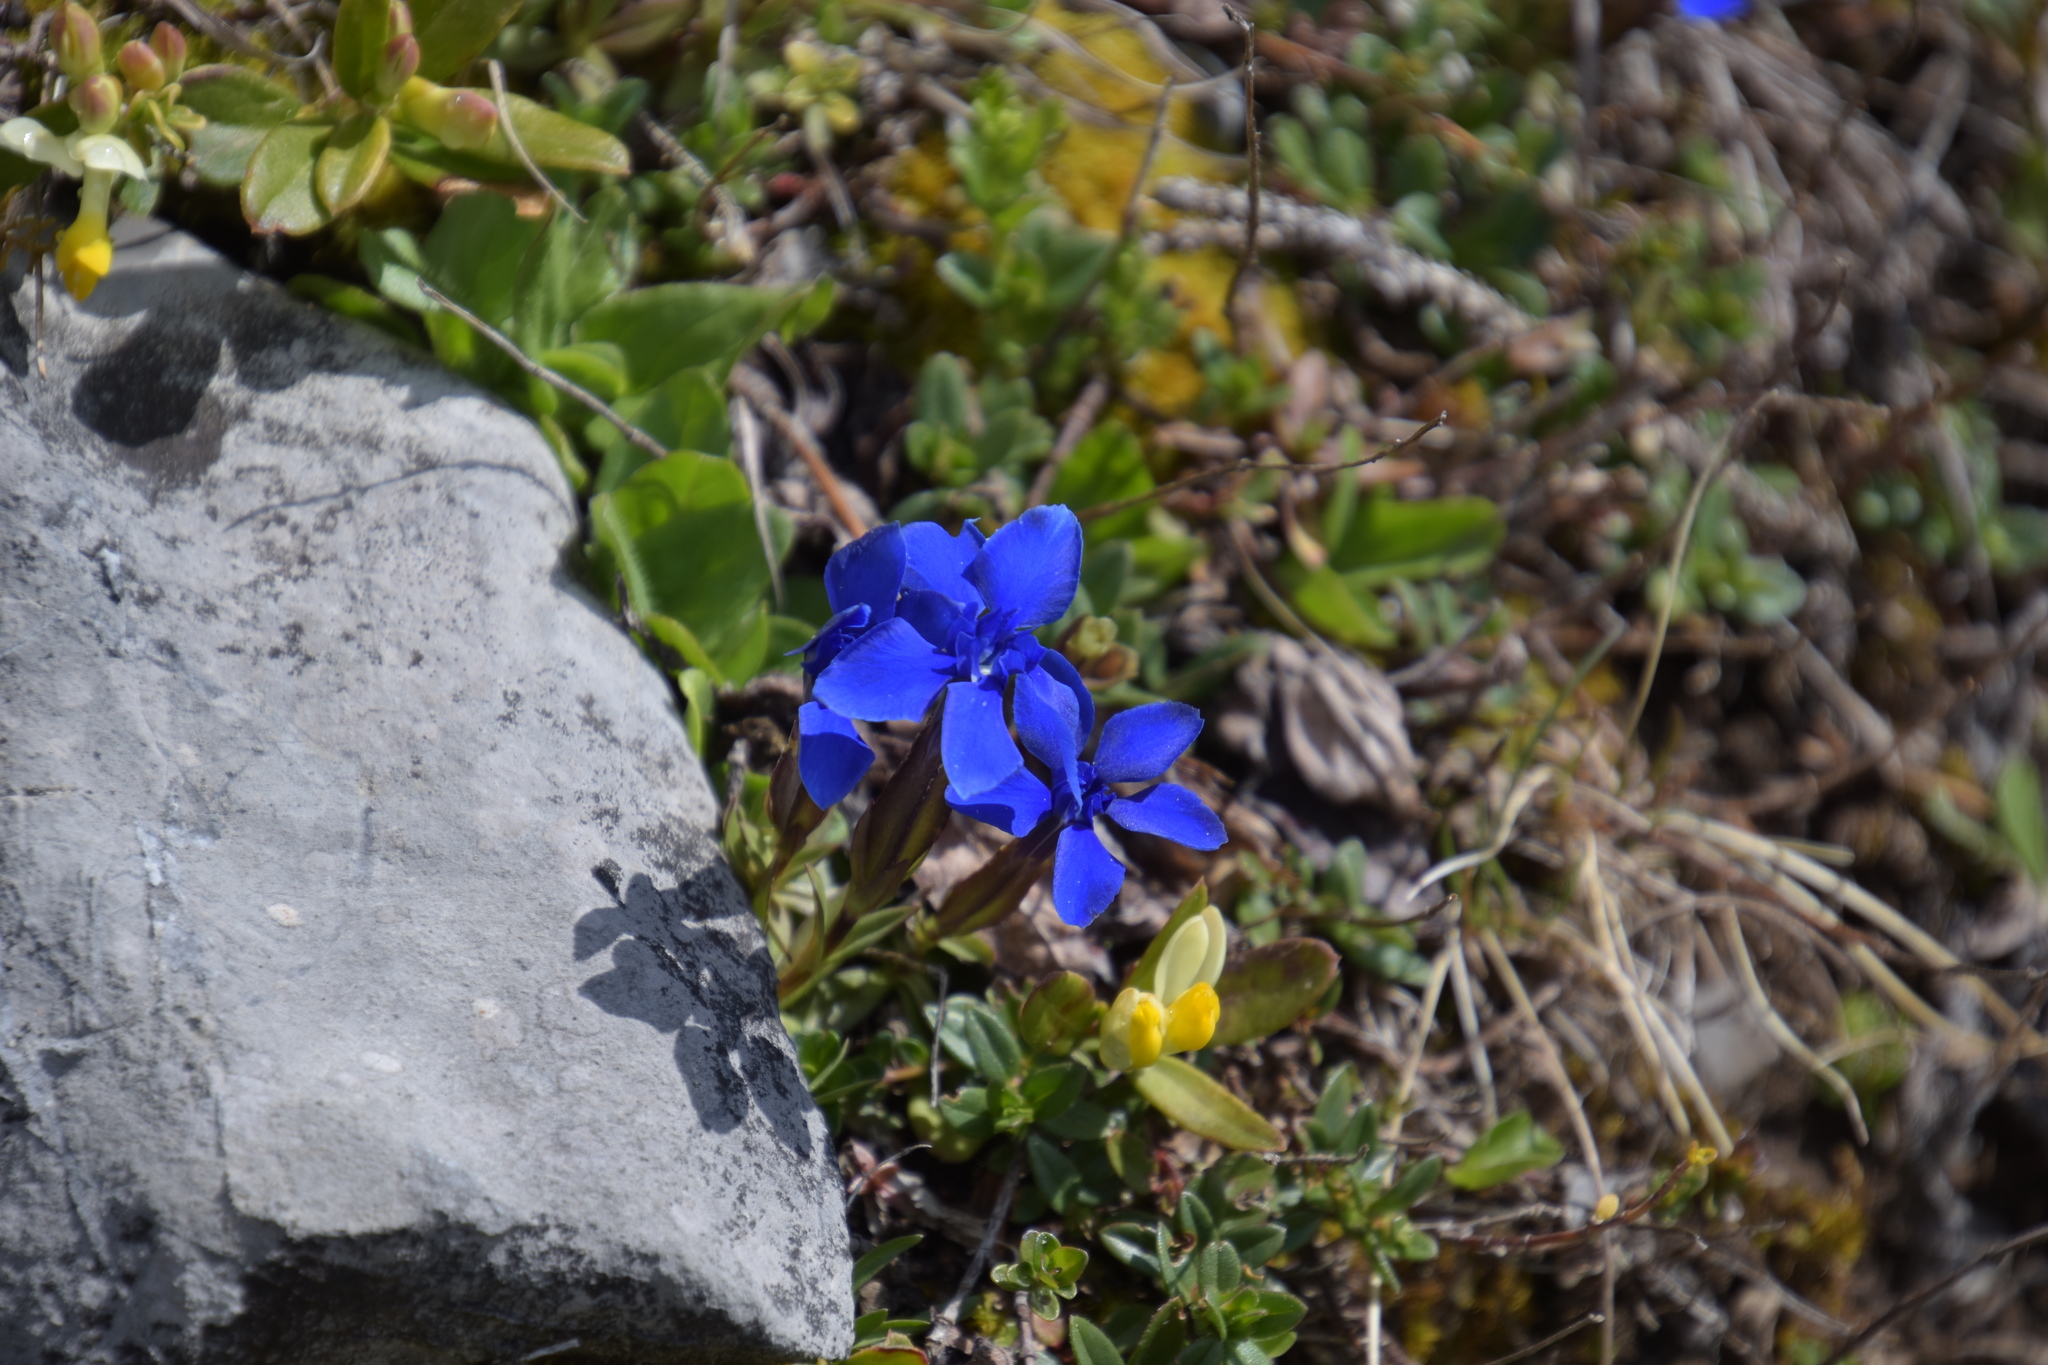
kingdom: Plantae
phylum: Tracheophyta
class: Magnoliopsida
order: Gentianales
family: Gentianaceae
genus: Gentiana
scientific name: Gentiana verna
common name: Spring gentian
